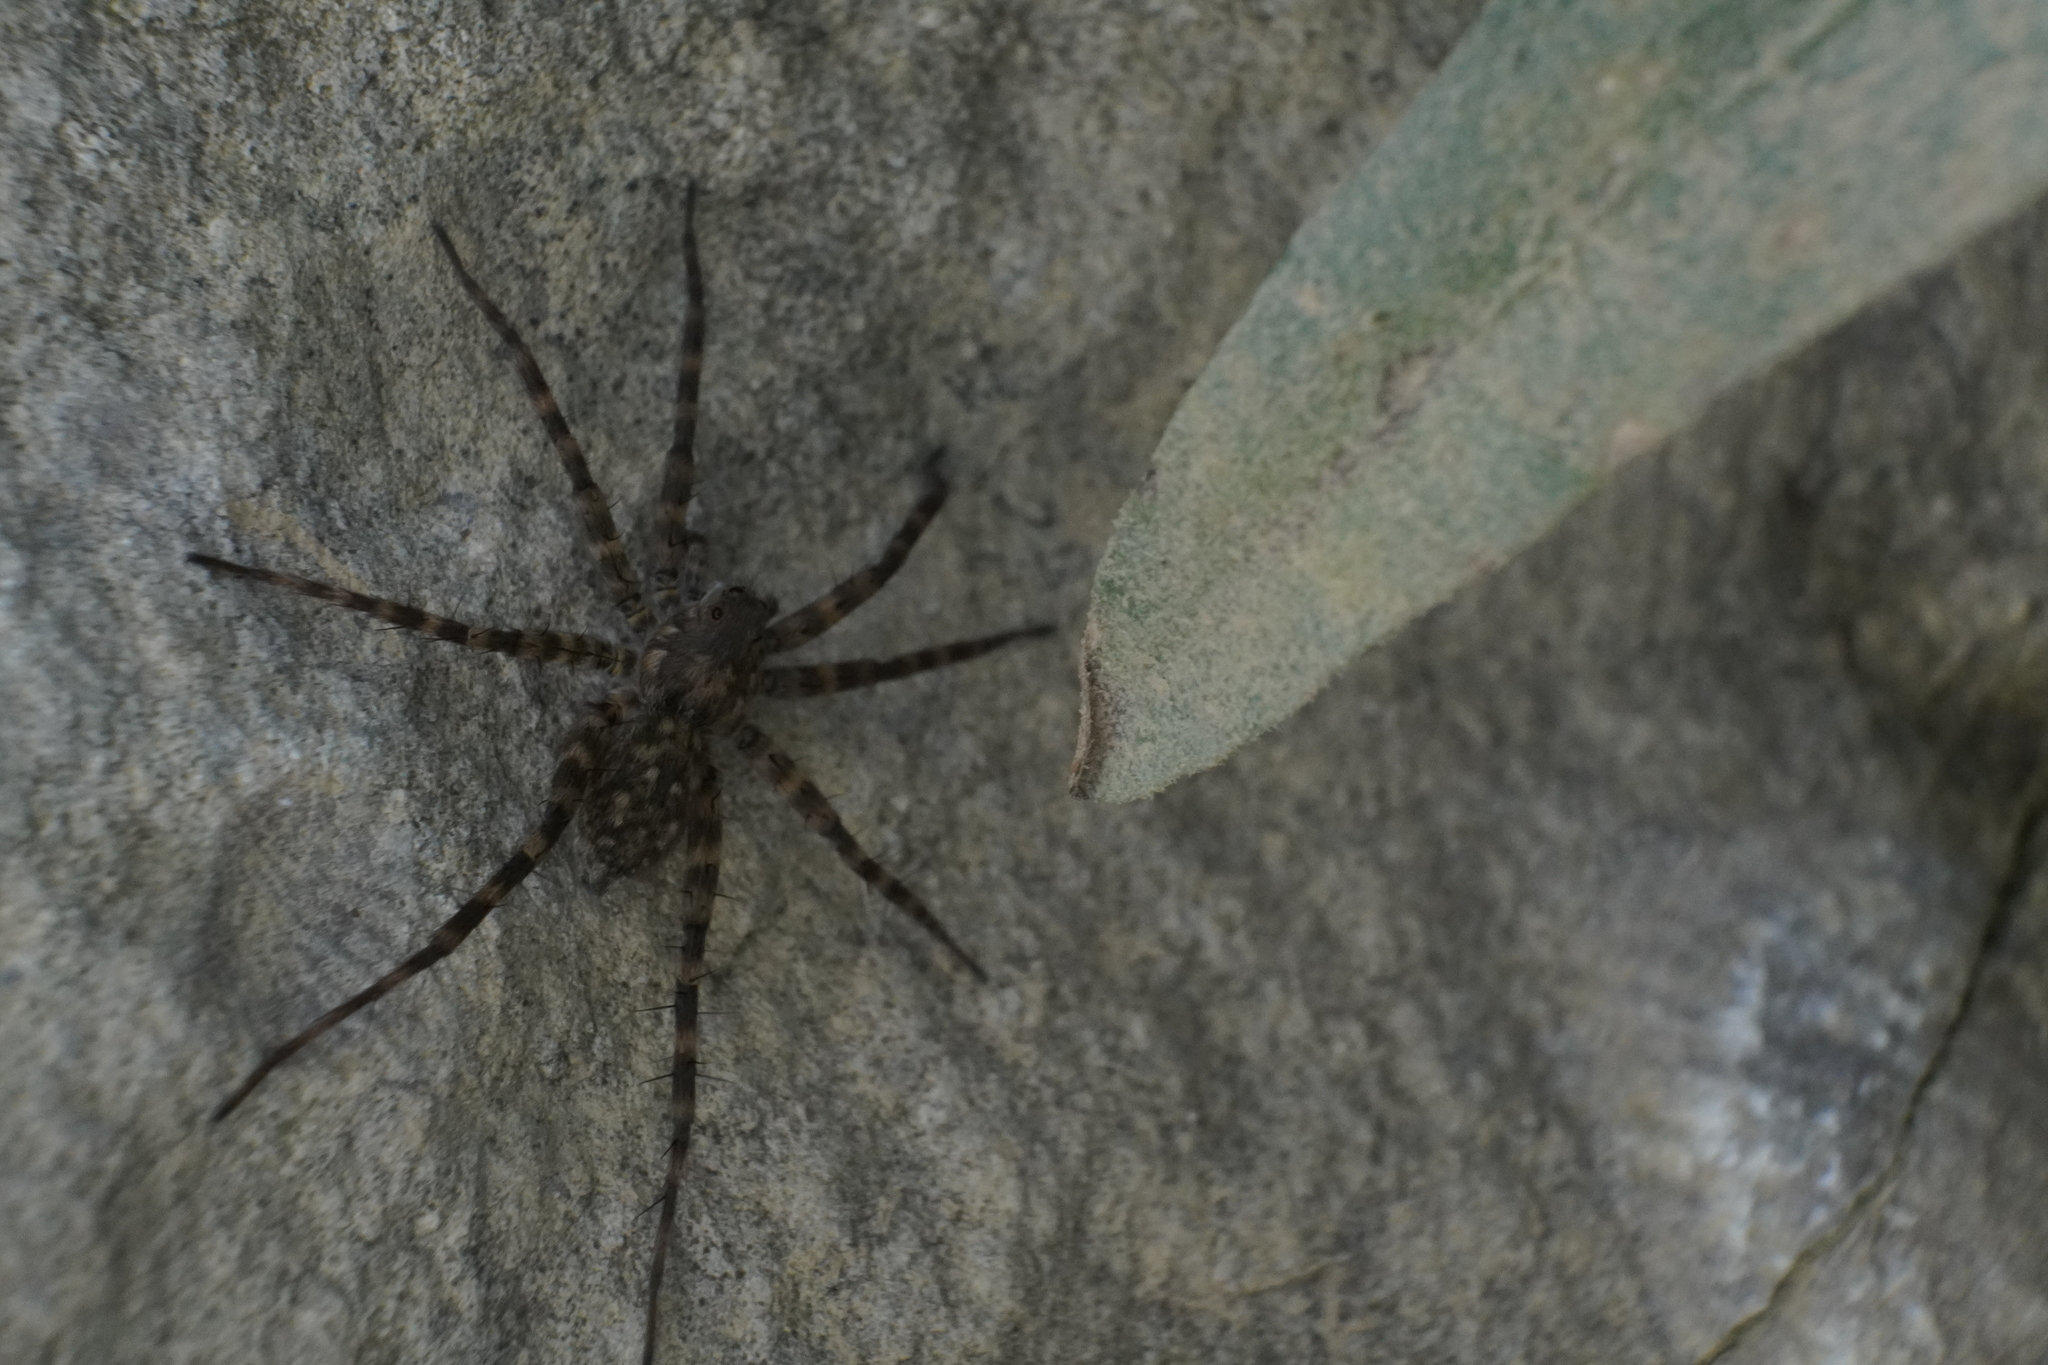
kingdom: Animalia
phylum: Arthropoda
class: Arachnida
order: Araneae
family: Lycosidae
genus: Pardosa
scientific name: Pardosa lapidicina
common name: Stone spider
